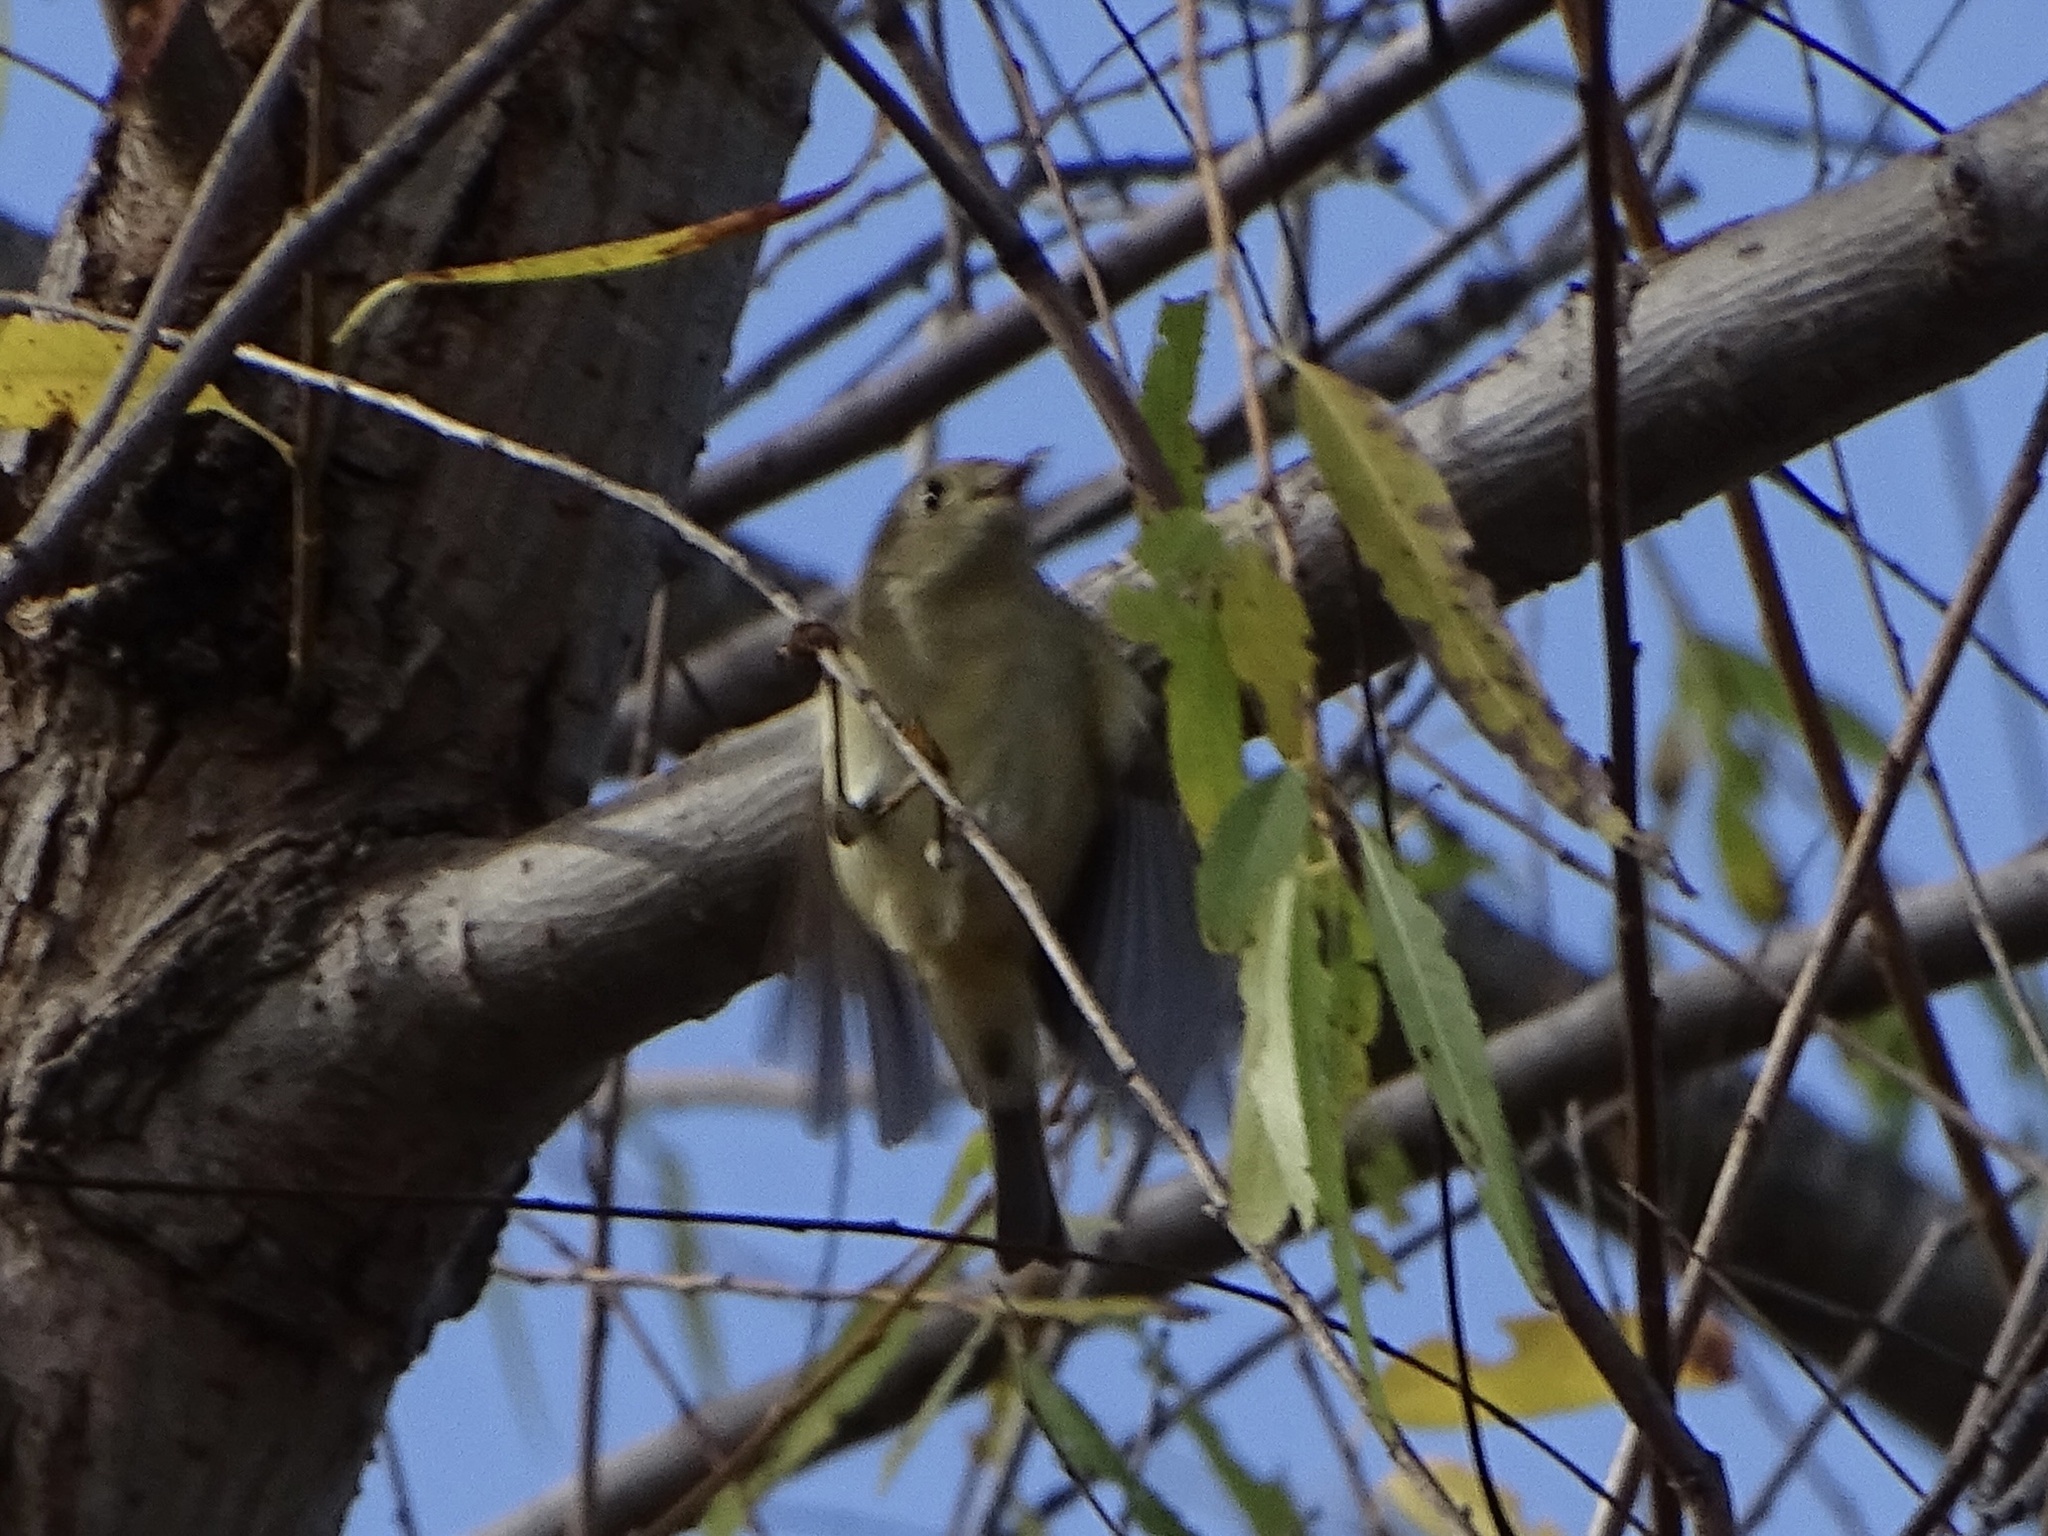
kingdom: Animalia
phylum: Chordata
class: Aves
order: Passeriformes
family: Regulidae
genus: Regulus
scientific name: Regulus calendula
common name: Ruby-crowned kinglet
